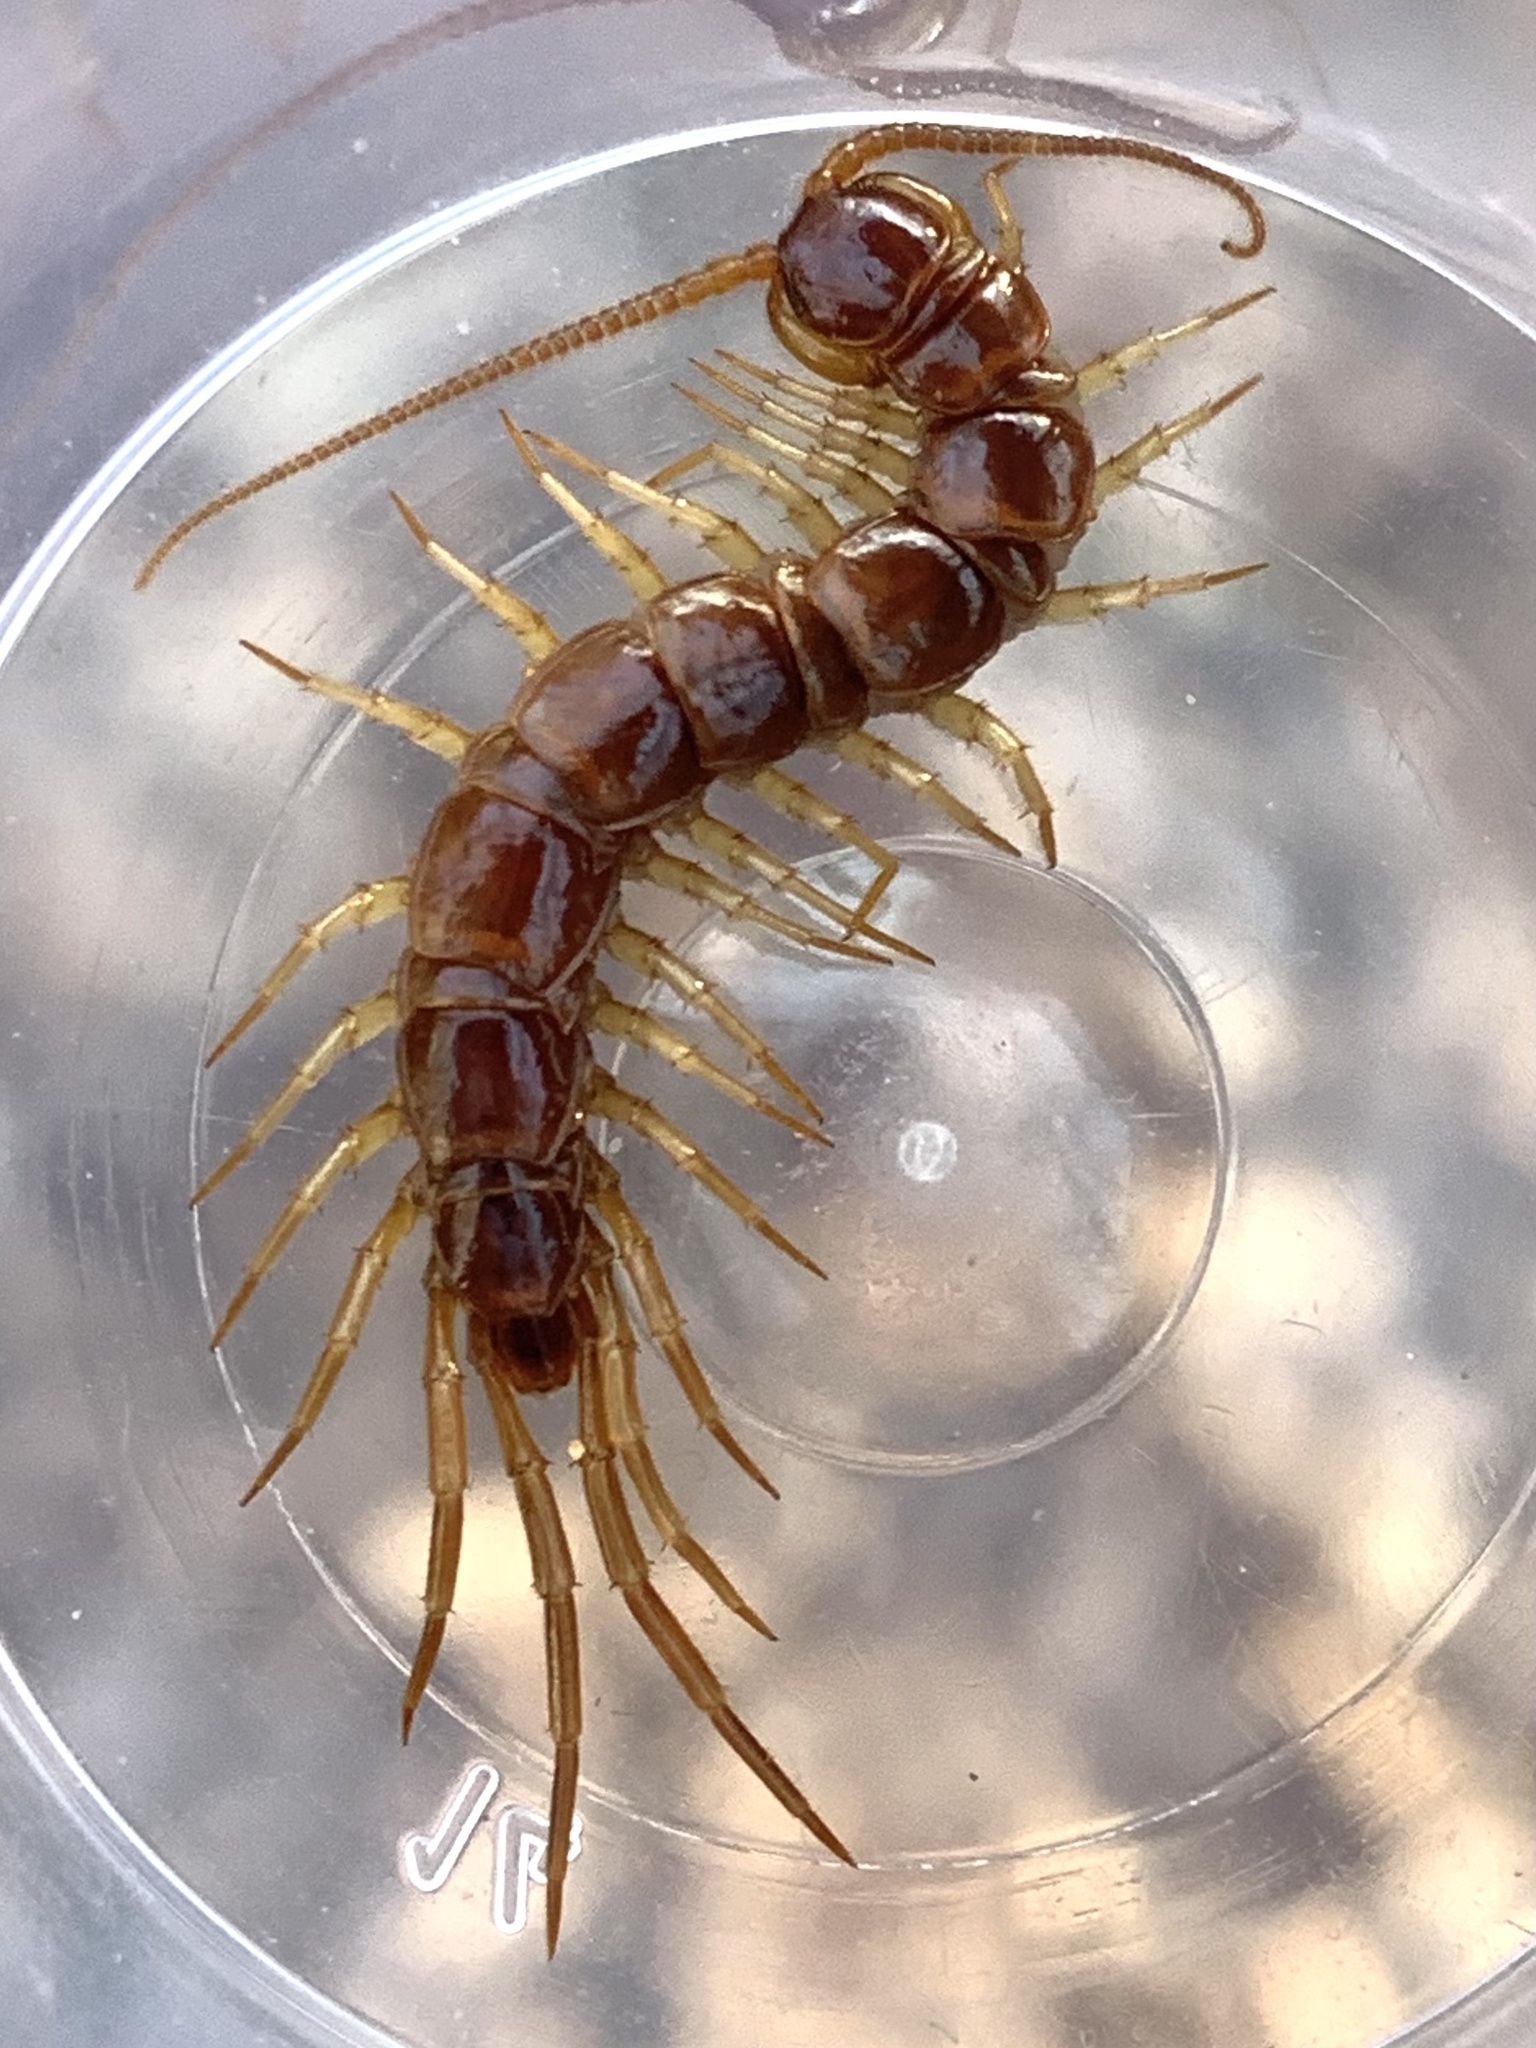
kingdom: Animalia
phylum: Arthropoda
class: Chilopoda
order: Lithobiomorpha
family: Lithobiidae
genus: Lithobius
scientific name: Lithobius forficatus
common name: Centipede
